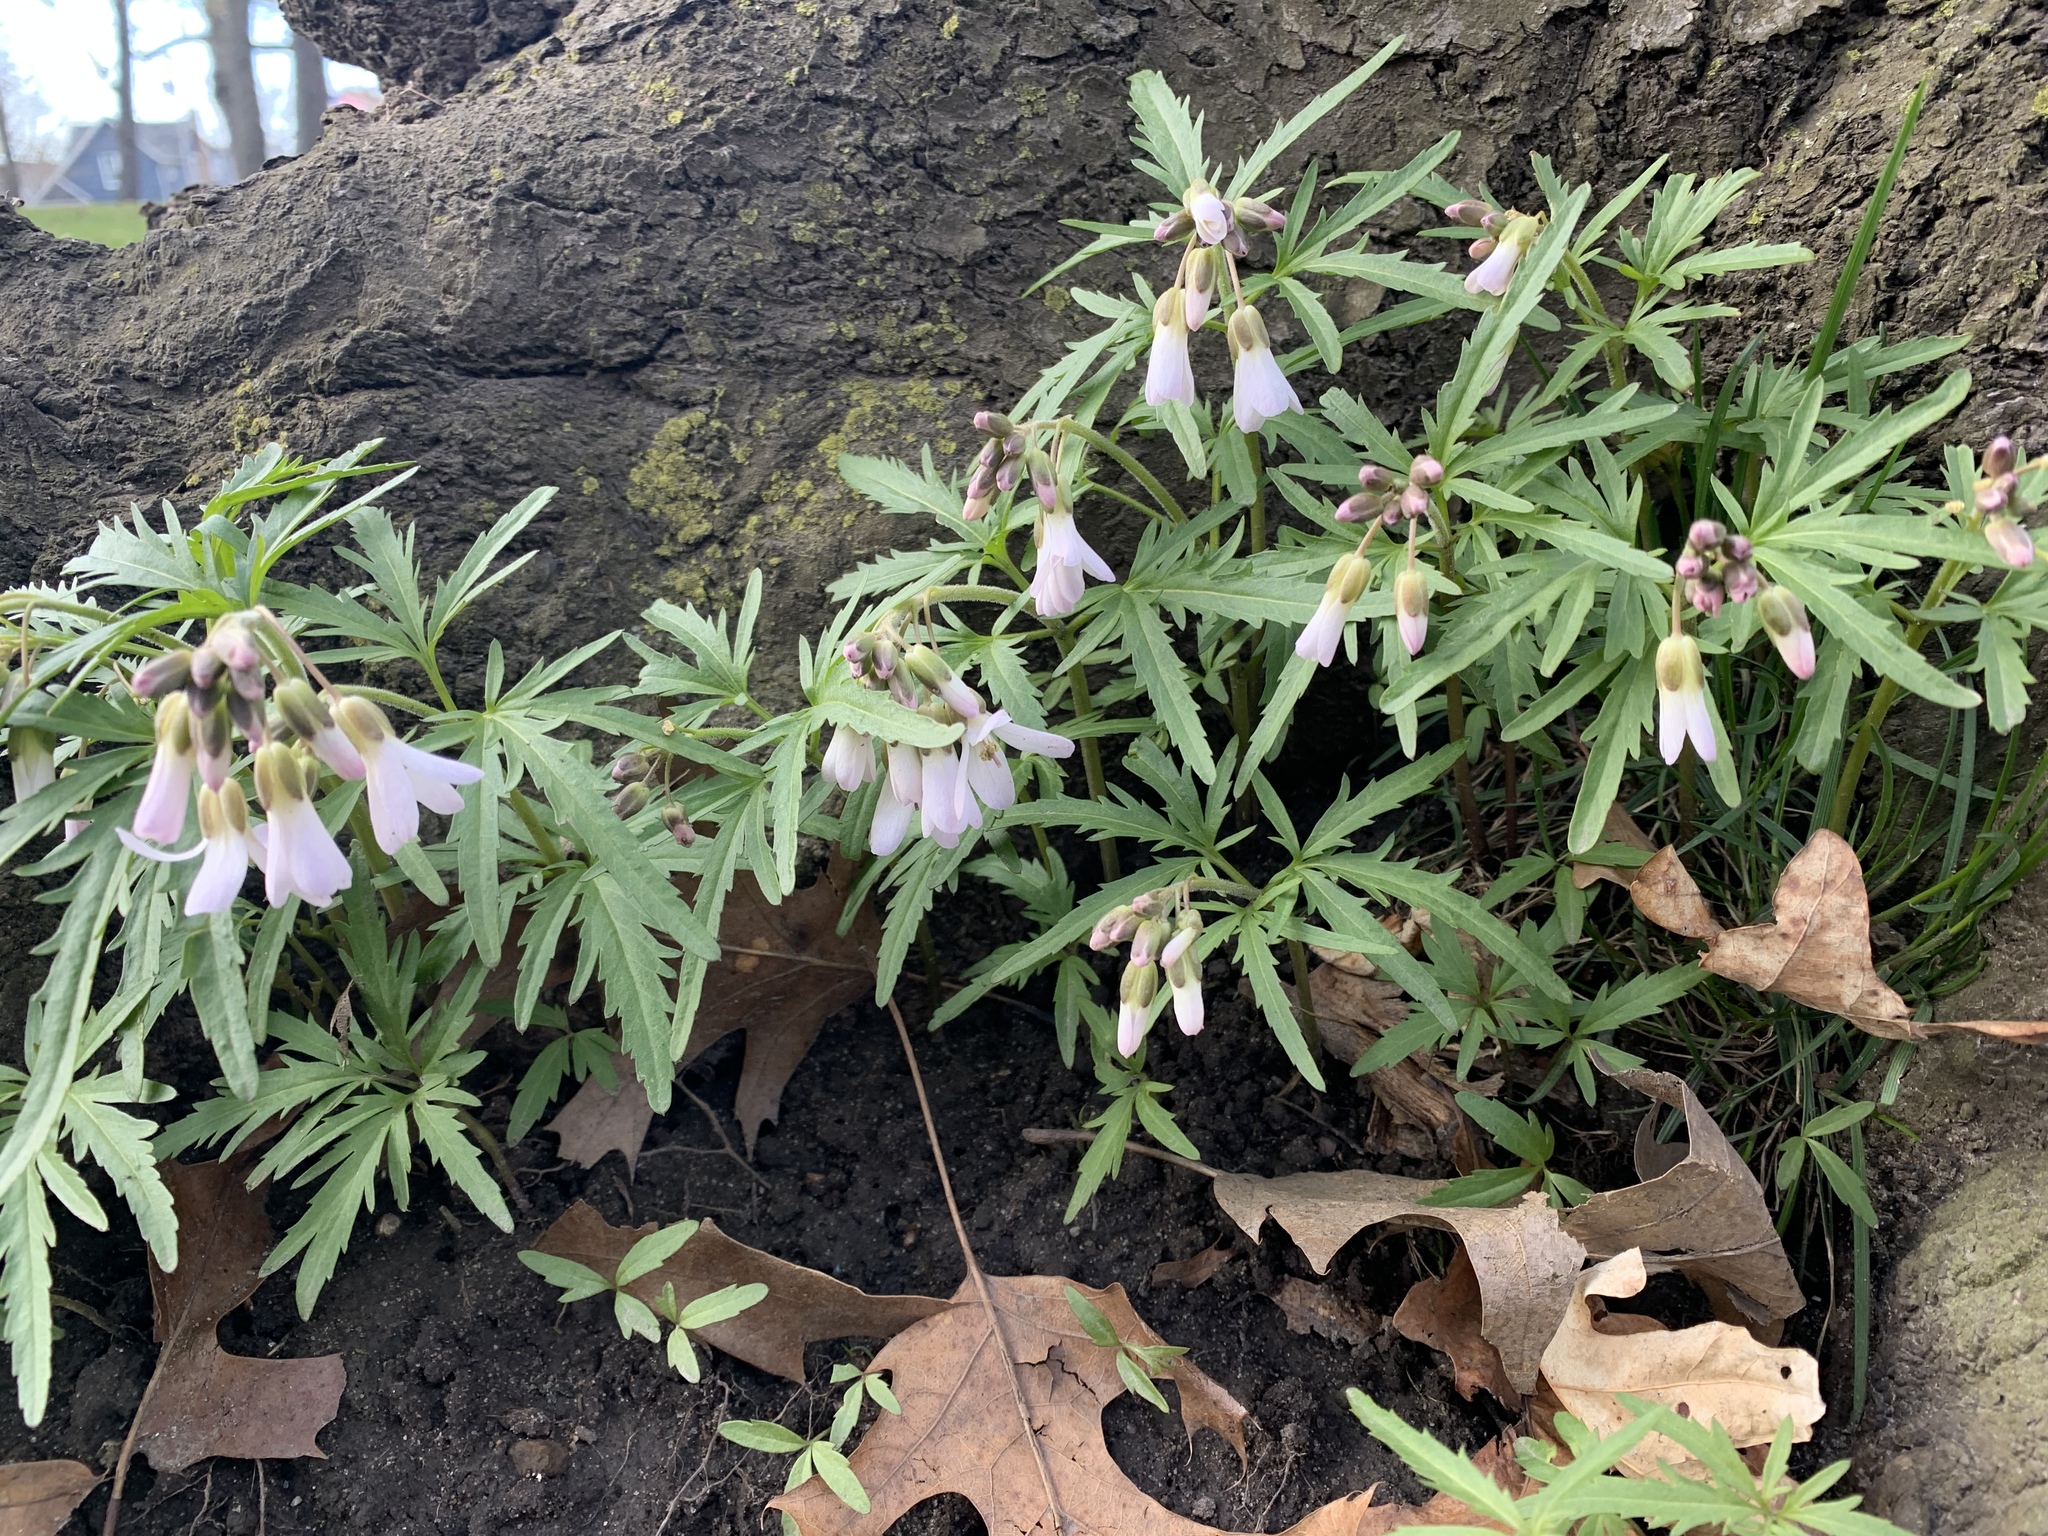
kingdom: Plantae
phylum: Tracheophyta
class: Magnoliopsida
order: Brassicales
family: Brassicaceae
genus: Cardamine
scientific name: Cardamine concatenata
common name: Cut-leaf toothcup
